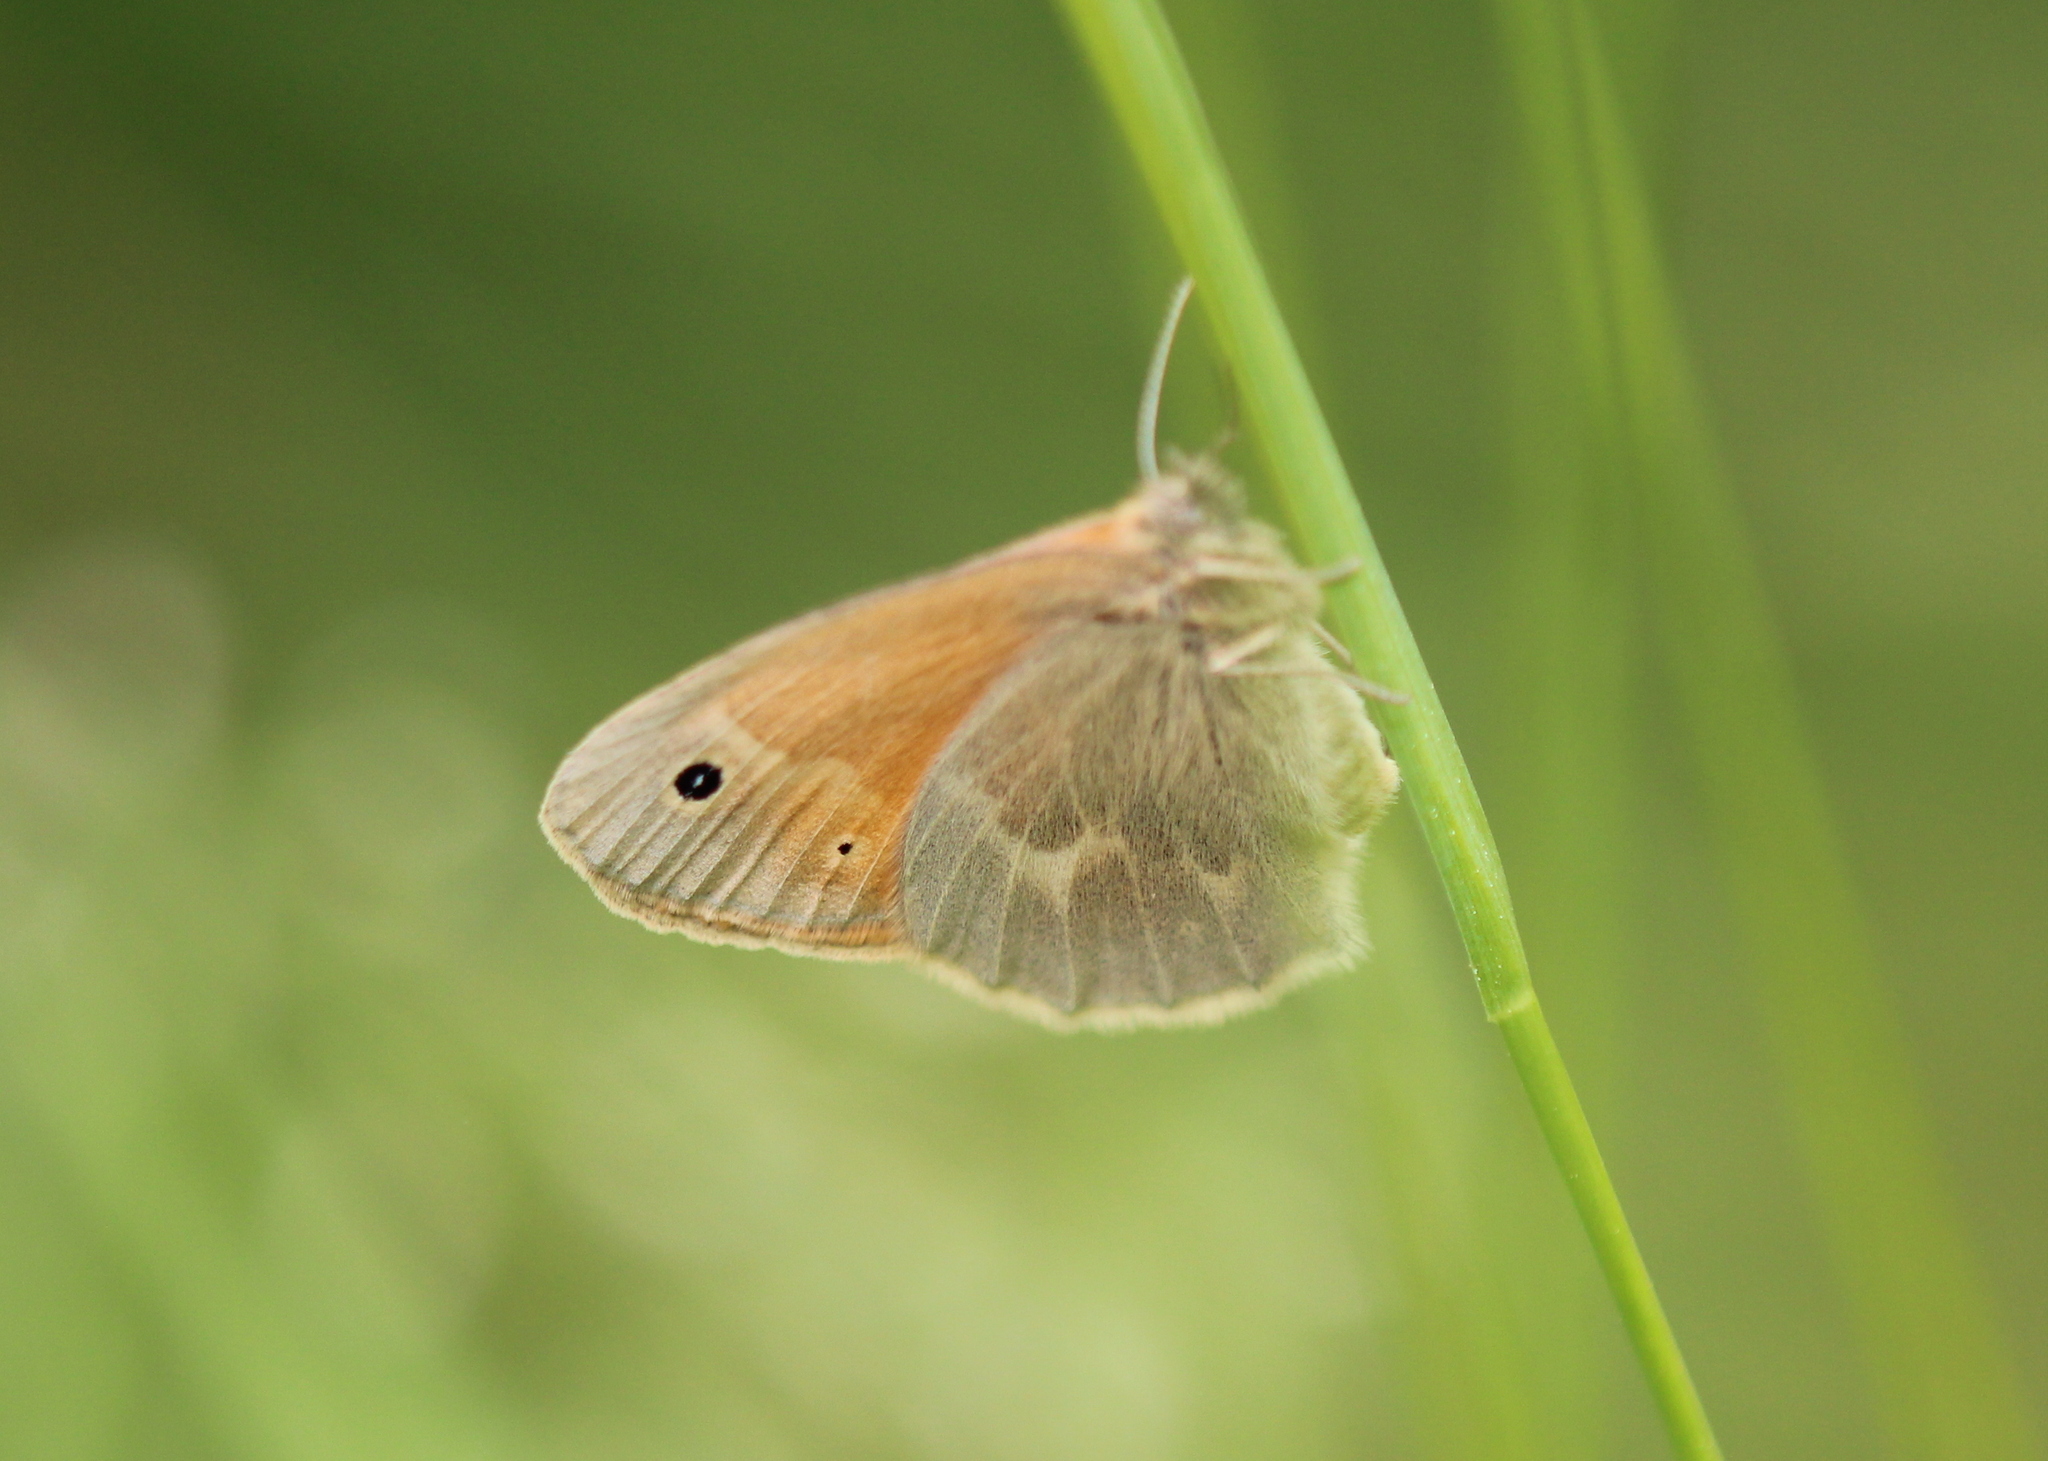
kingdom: Animalia
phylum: Arthropoda
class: Insecta
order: Lepidoptera
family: Nymphalidae
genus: Coenonympha
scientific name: Coenonympha california
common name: Common ringlet
